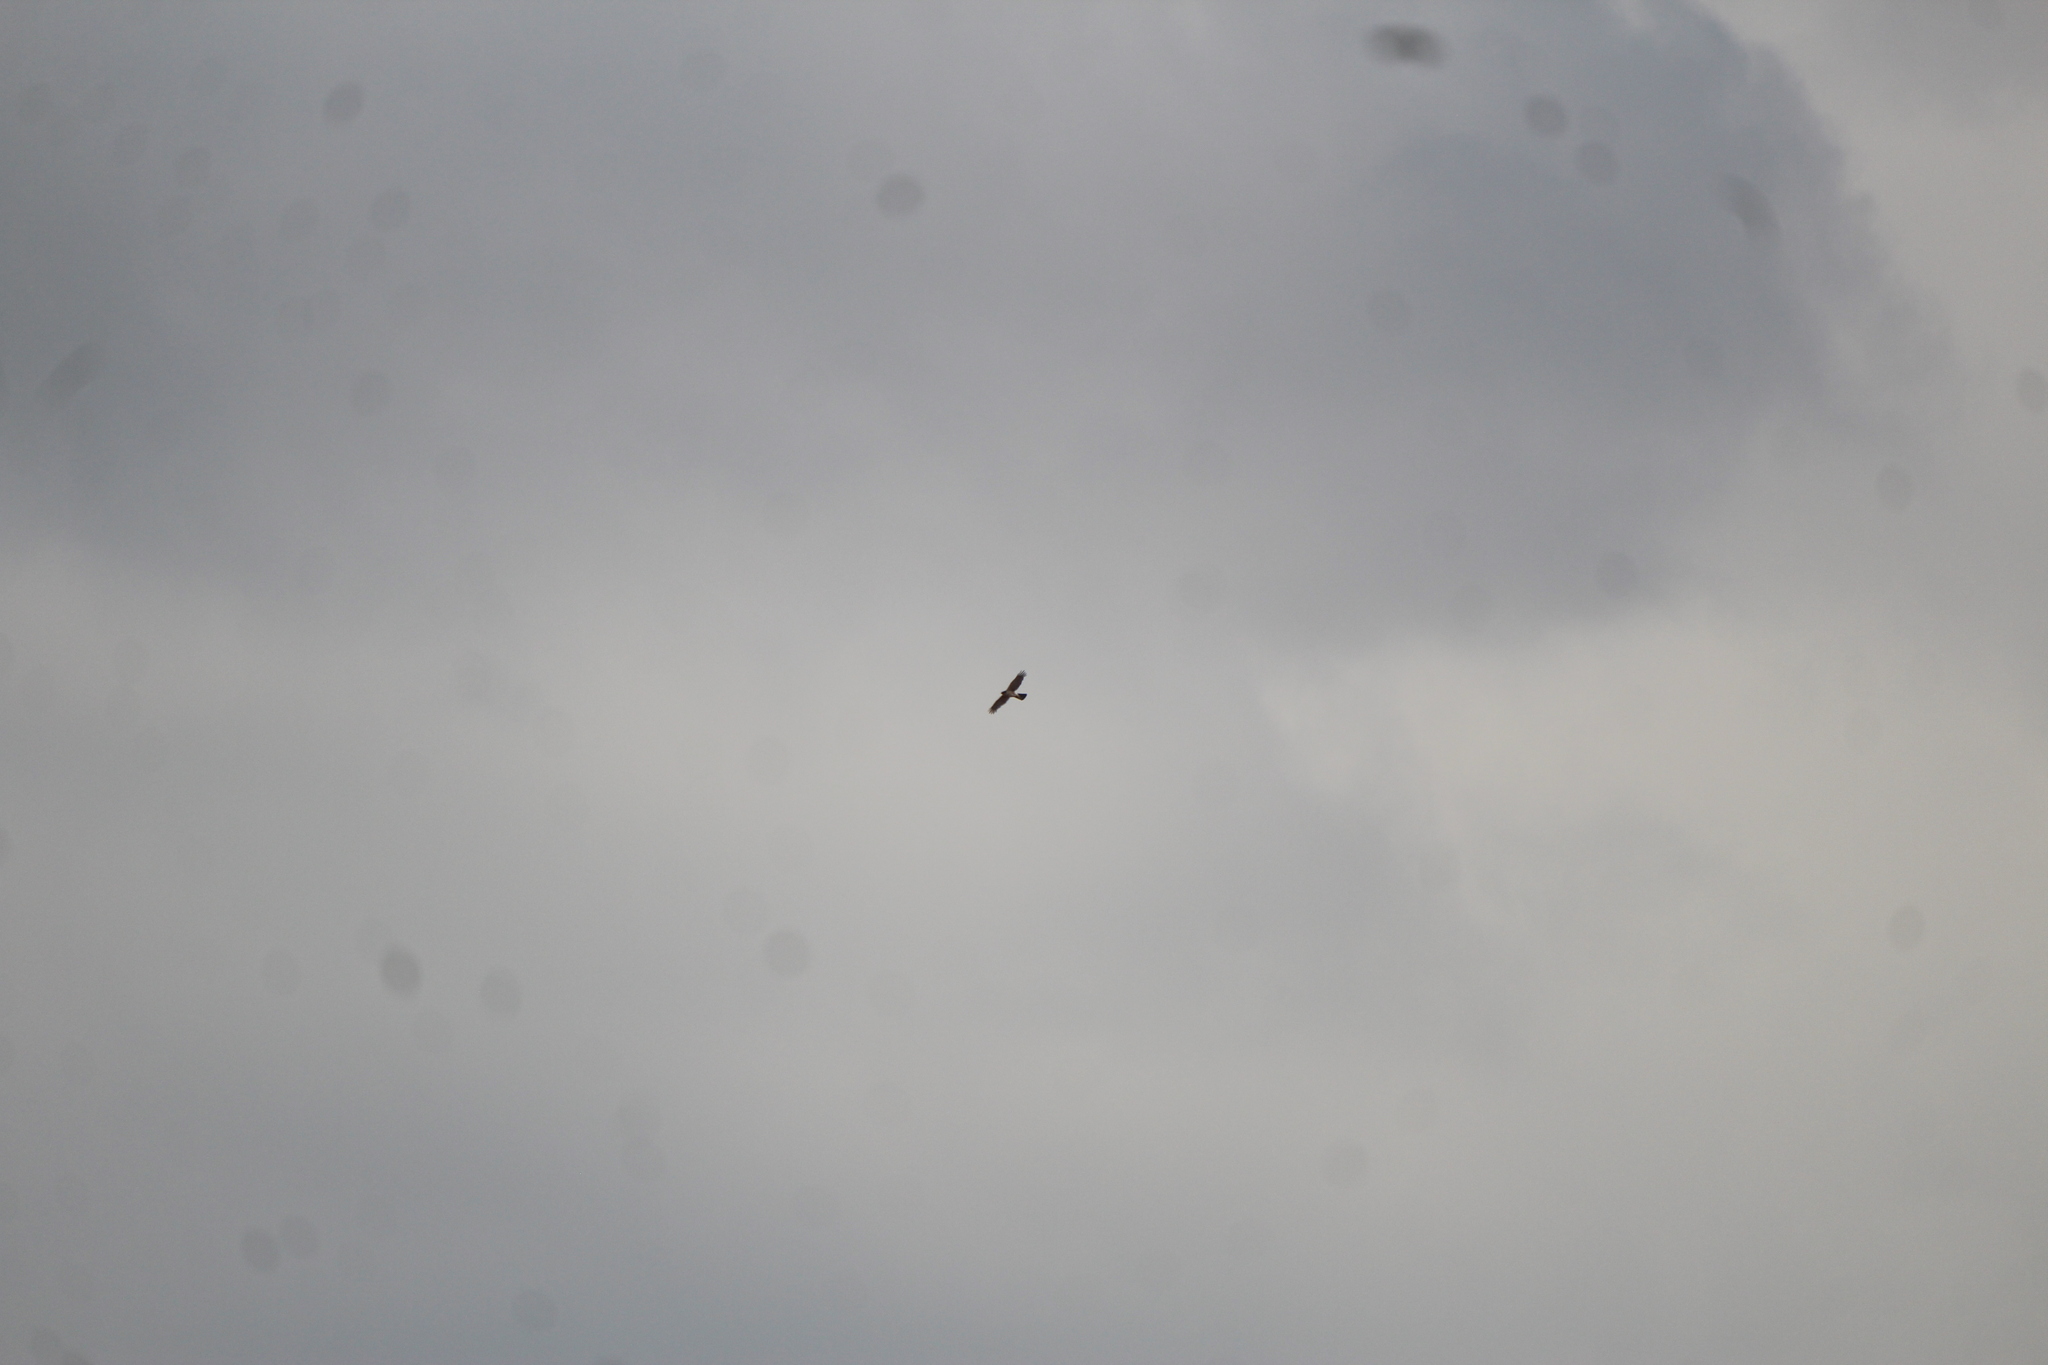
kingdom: Animalia
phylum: Chordata
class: Aves
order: Accipitriformes
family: Accipitridae
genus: Accipiter
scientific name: Accipiter cooperii
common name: Cooper's hawk
